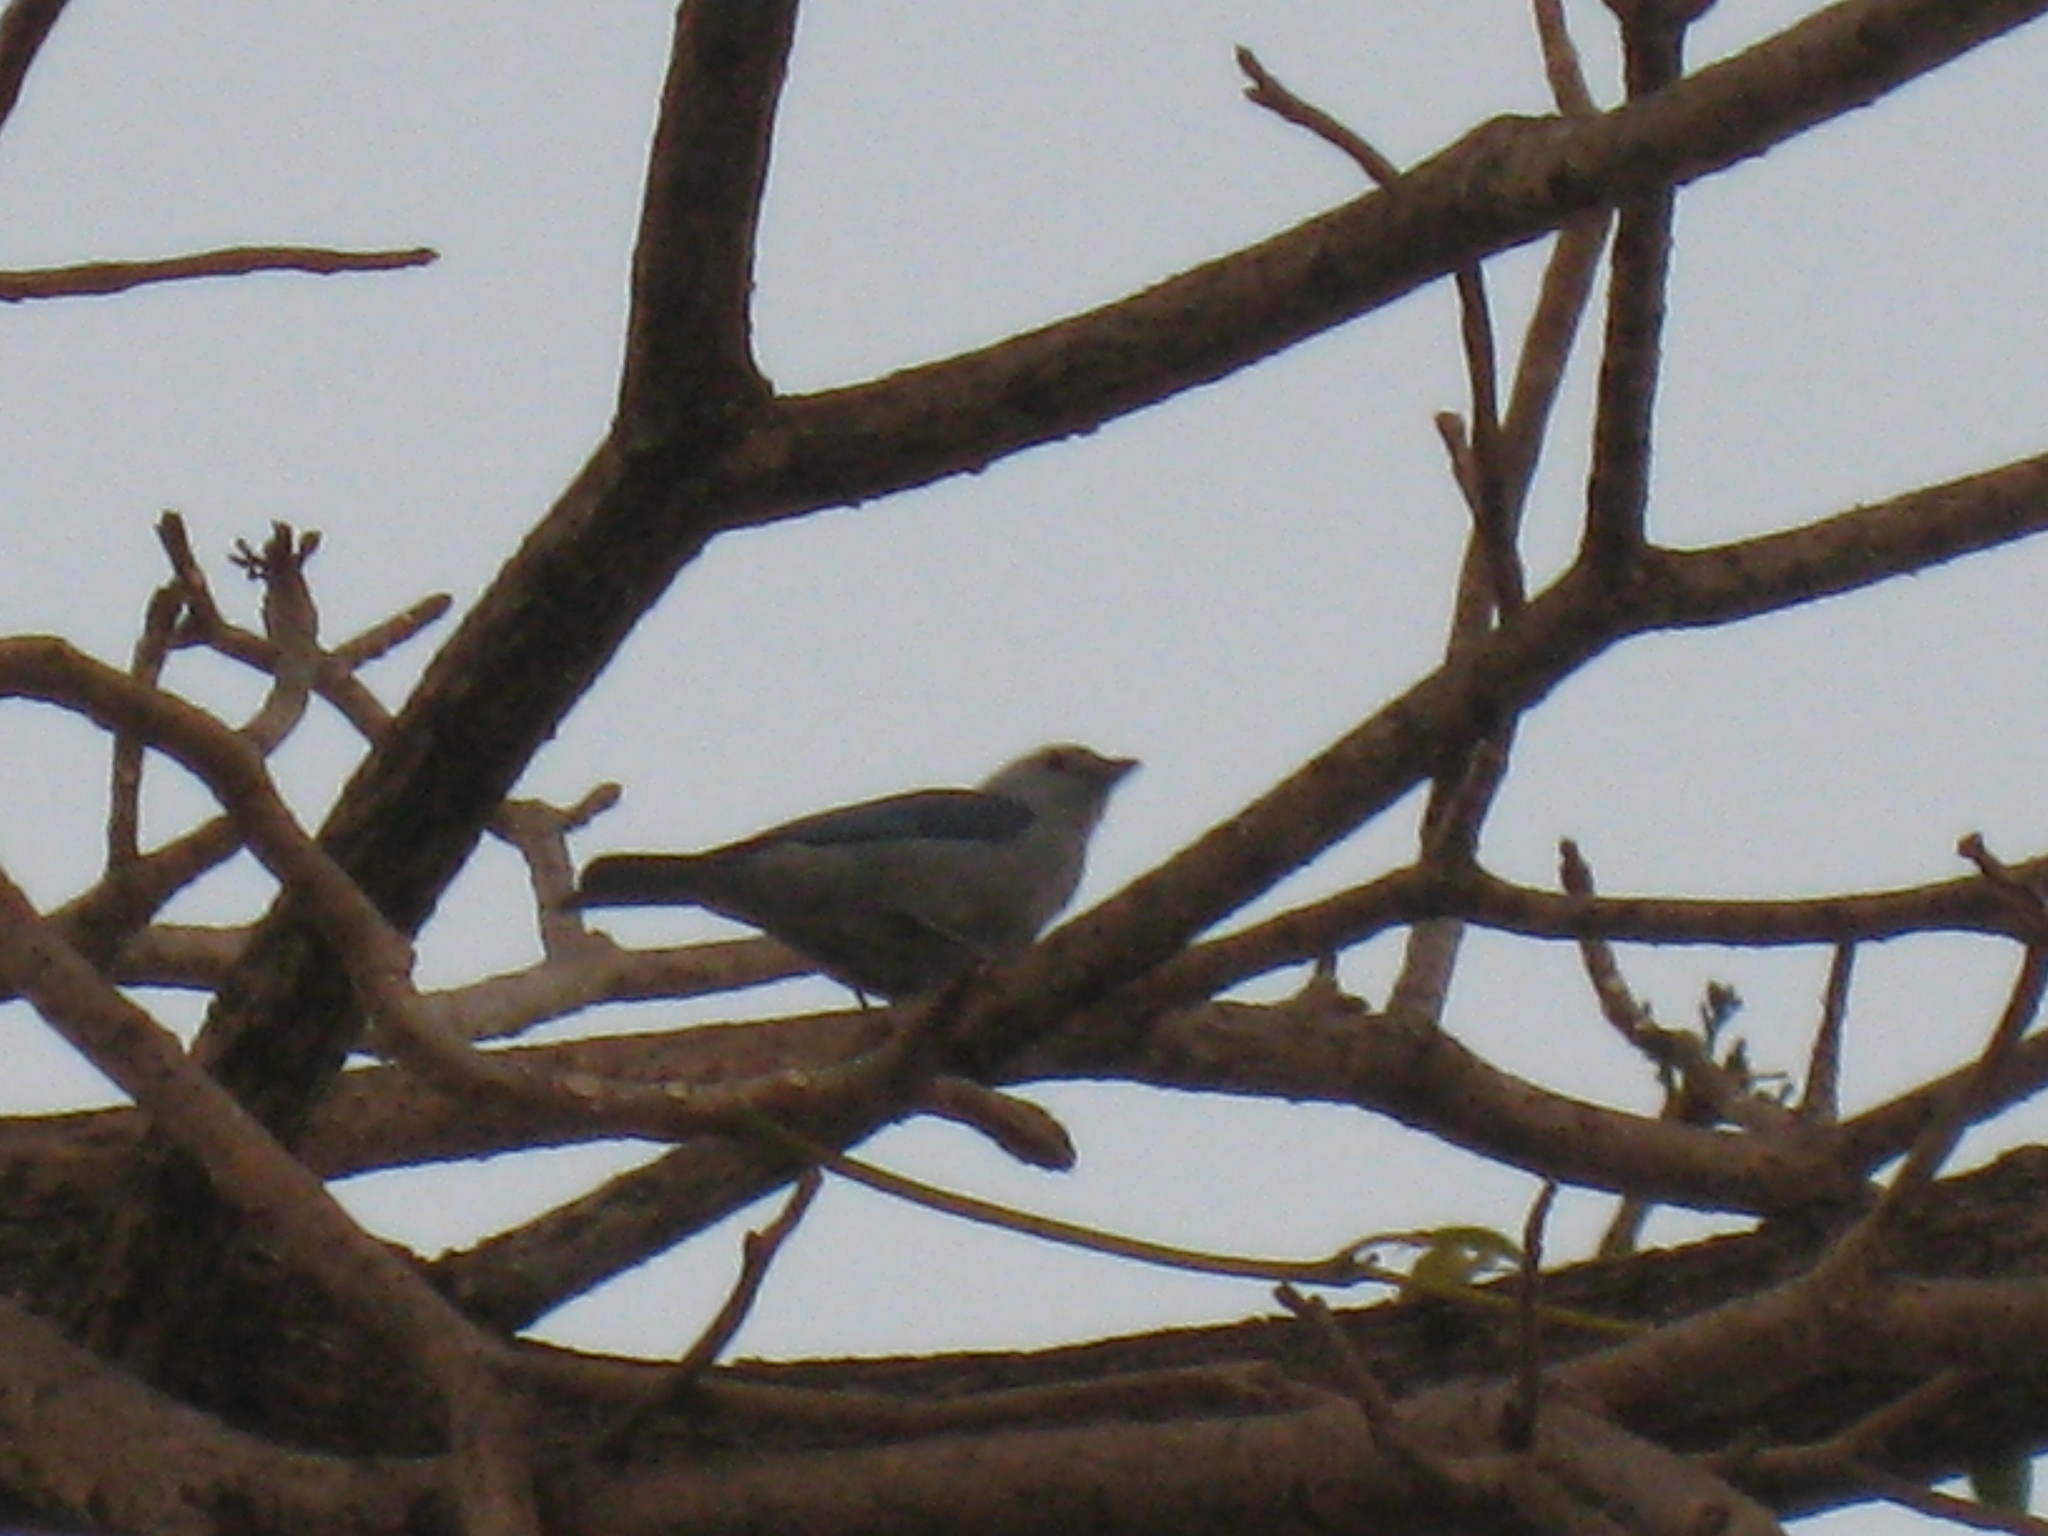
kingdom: Animalia
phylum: Chordata
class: Aves
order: Passeriformes
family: Thraupidae
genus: Thraupis
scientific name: Thraupis episcopus
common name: Blue-grey tanager
